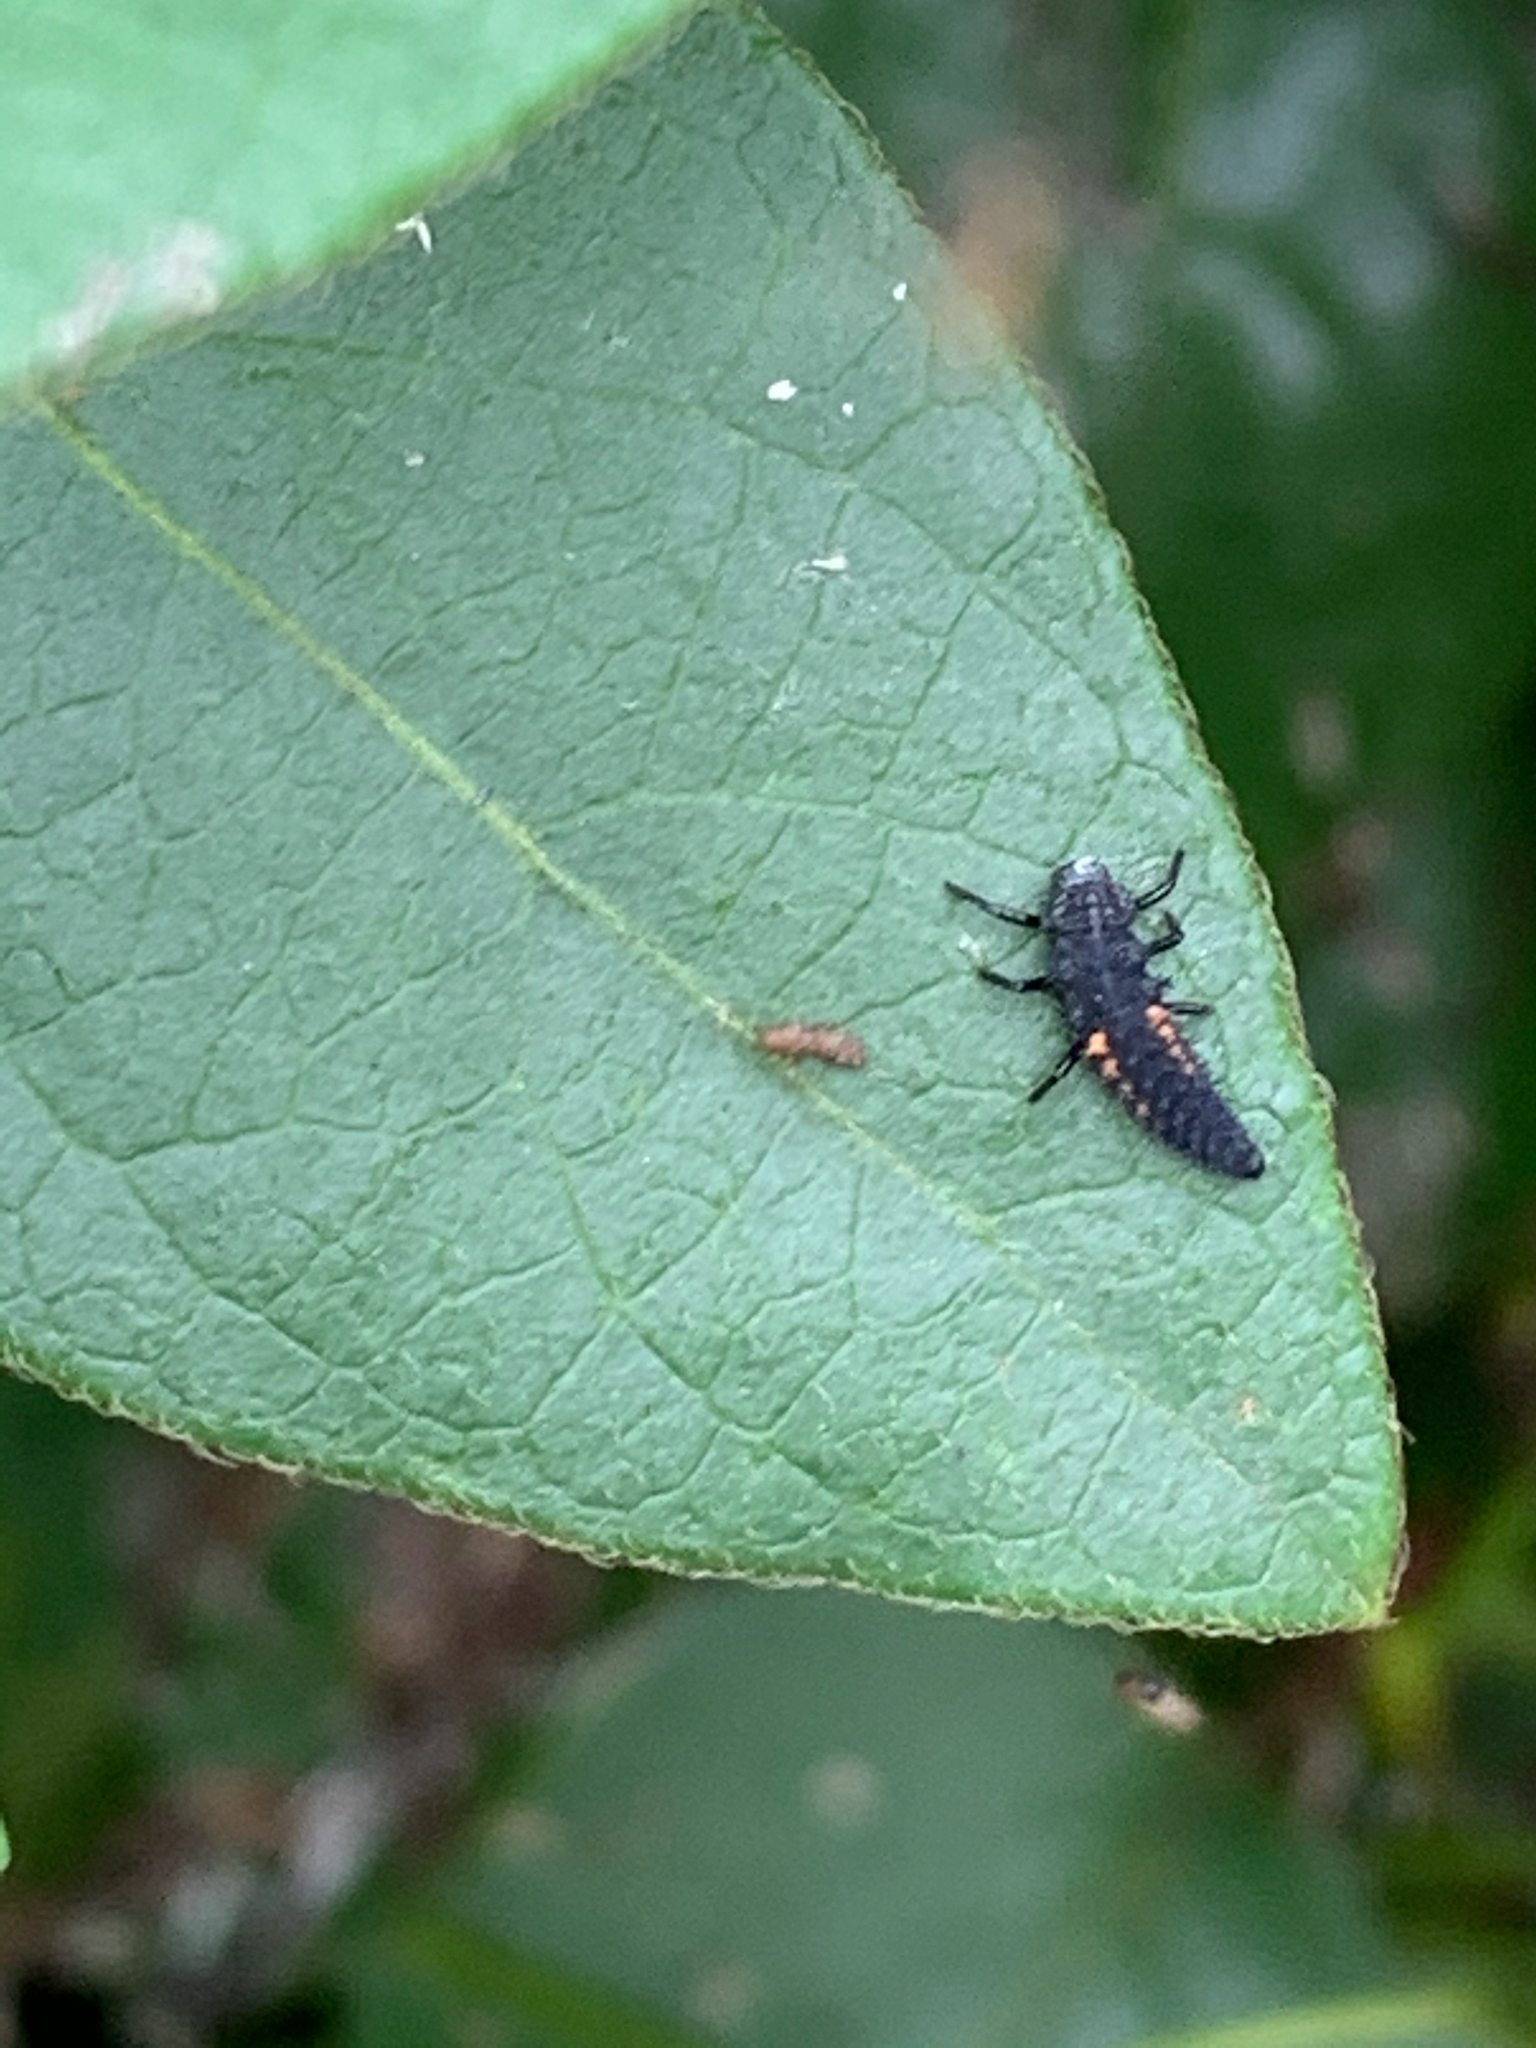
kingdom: Animalia
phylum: Arthropoda
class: Insecta
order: Coleoptera
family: Coccinellidae
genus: Harmonia
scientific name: Harmonia axyridis
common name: Harlequin ladybird
